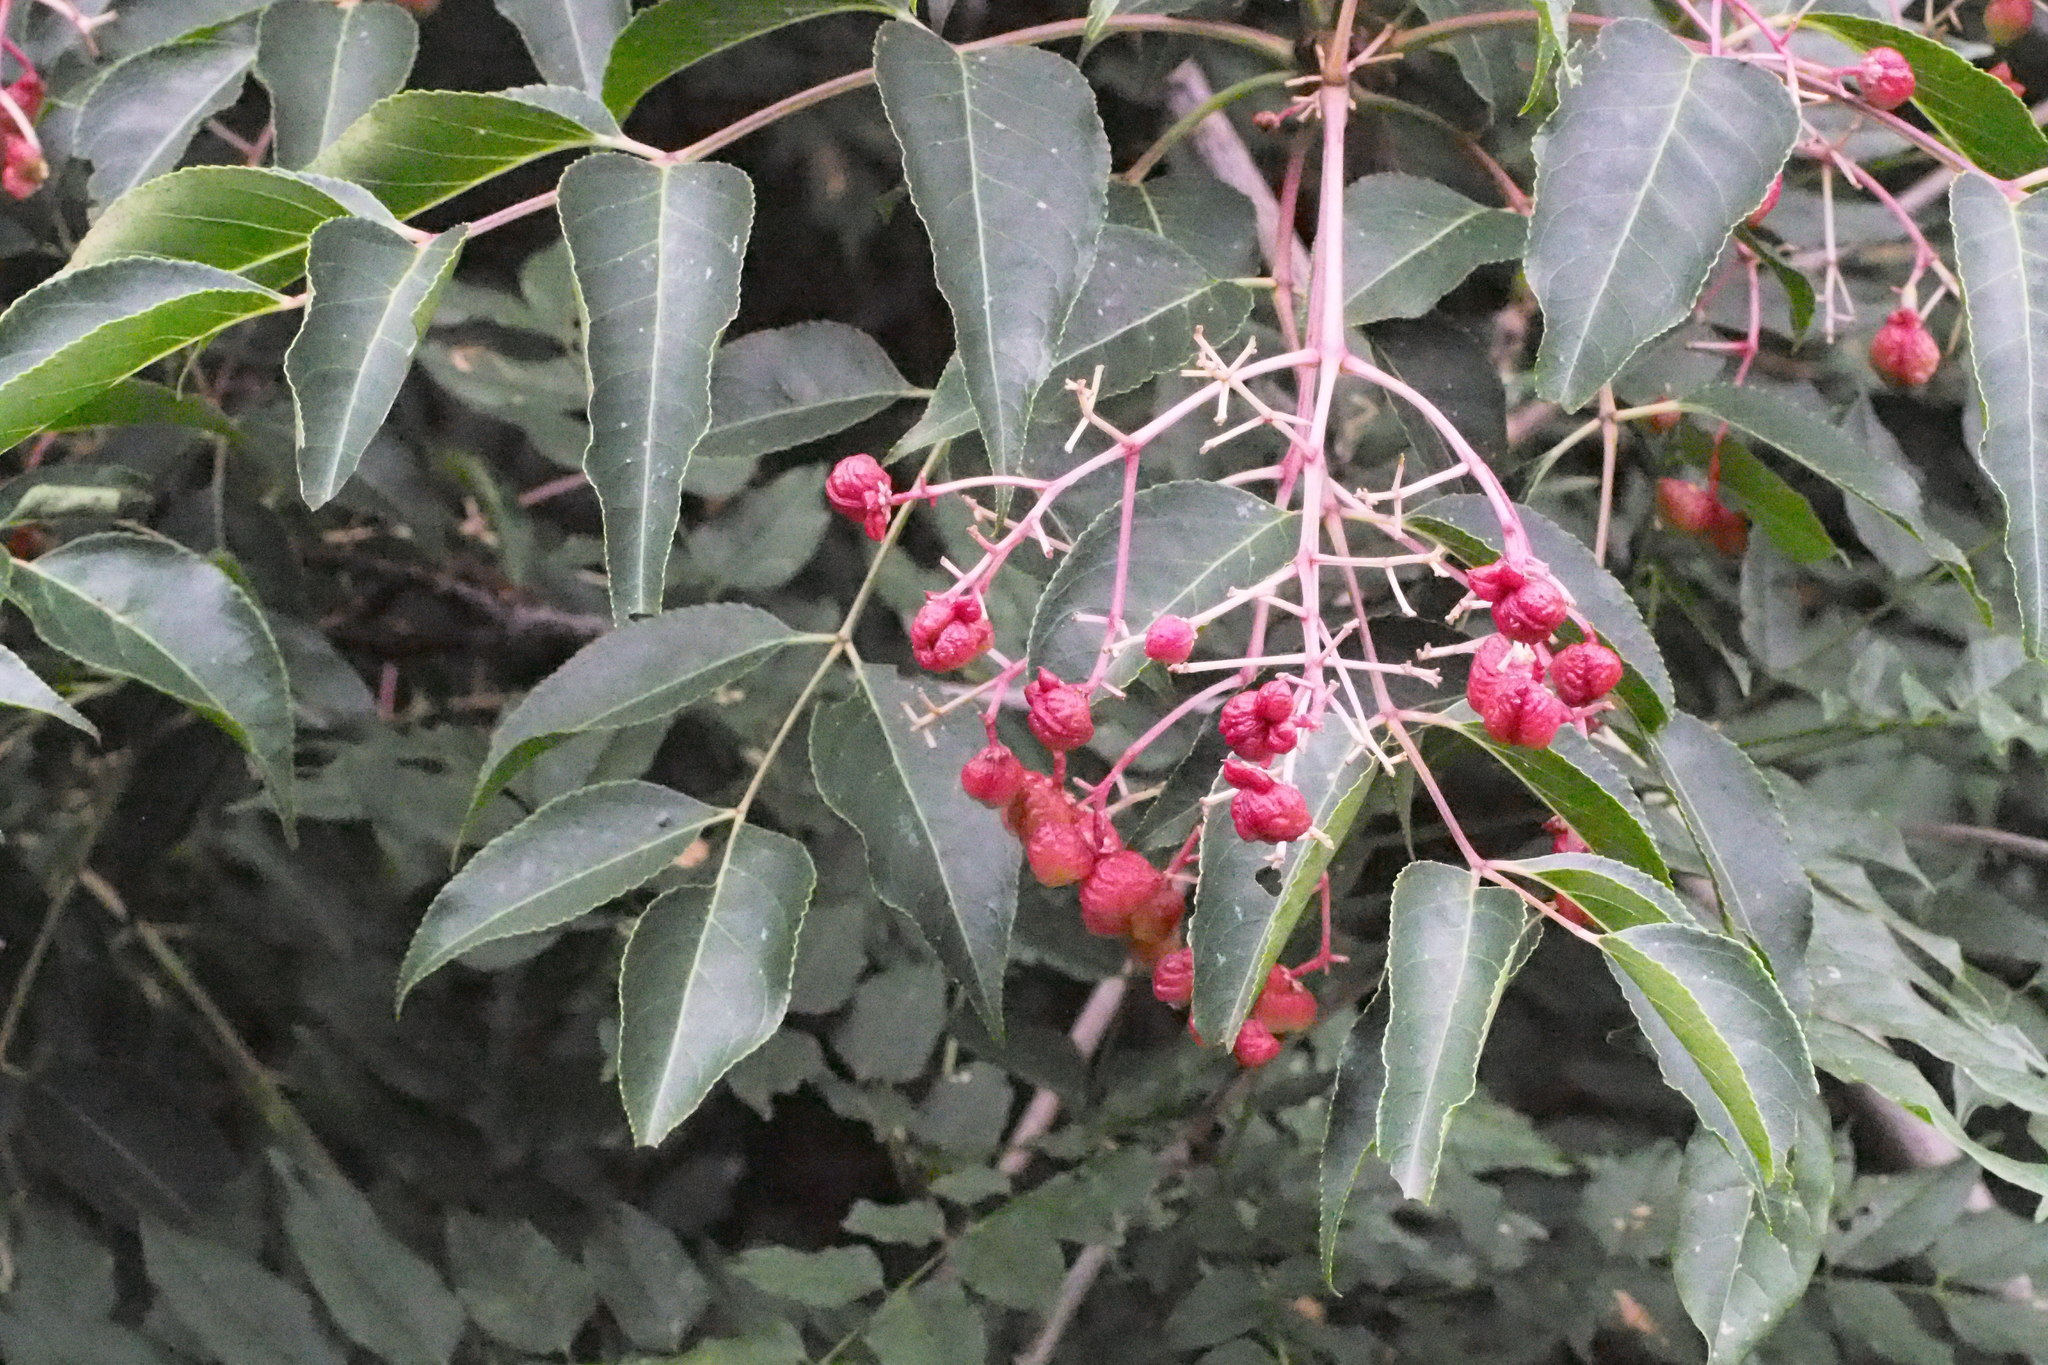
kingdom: Plantae
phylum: Tracheophyta
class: Magnoliopsida
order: Crossosomatales
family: Staphyleaceae
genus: Staphylea
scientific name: Staphylea japonica
